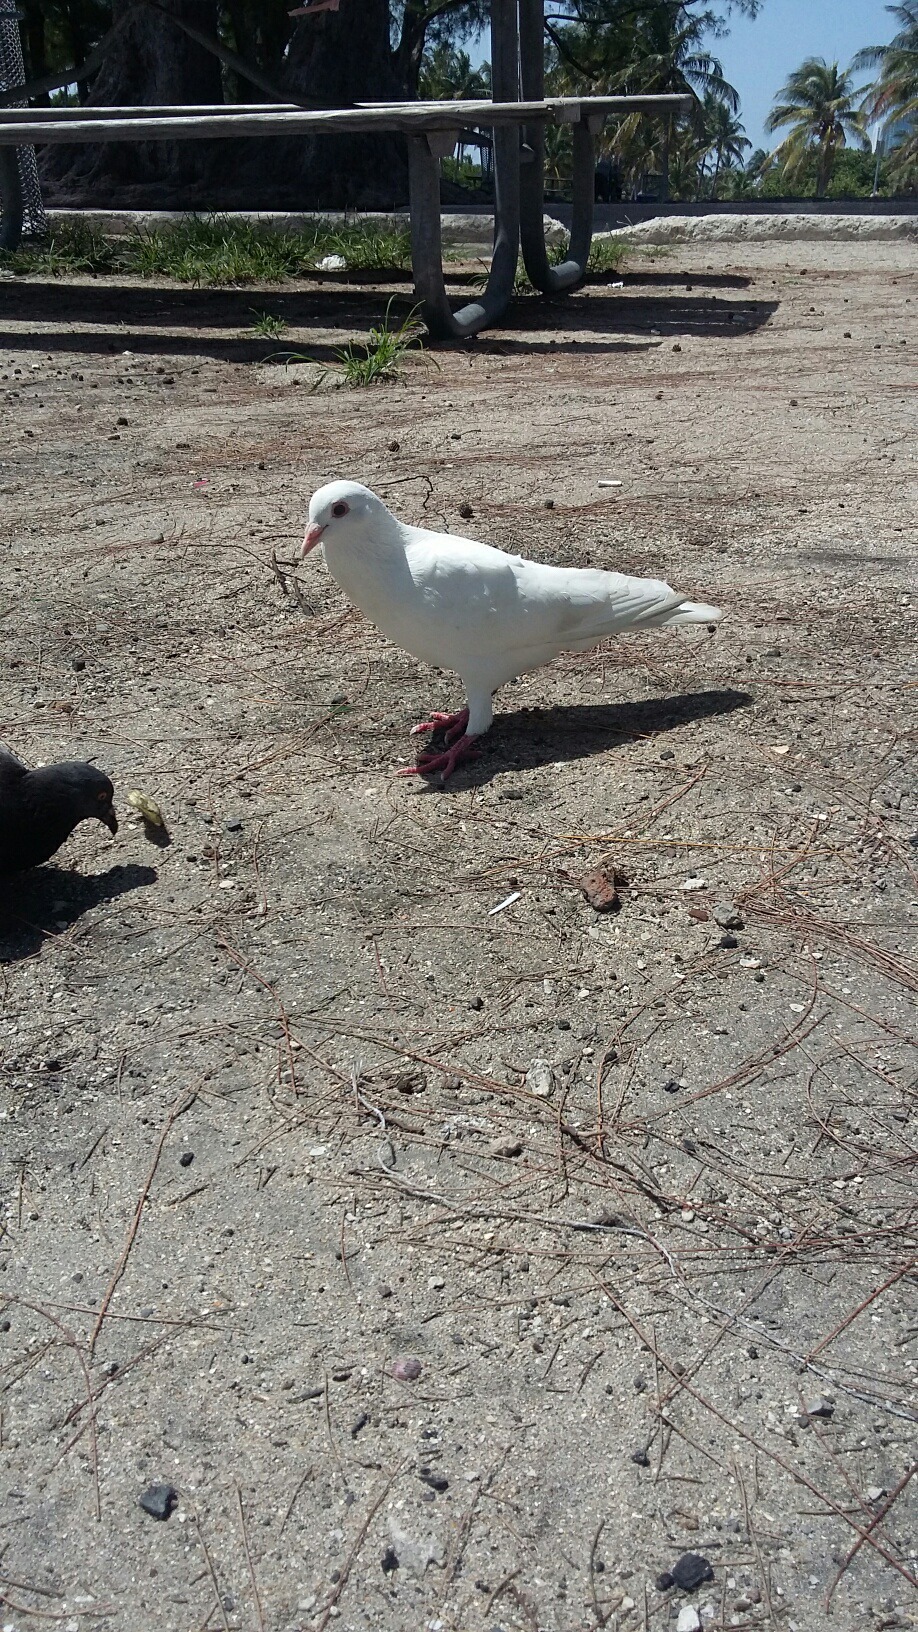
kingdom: Animalia
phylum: Chordata
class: Aves
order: Columbiformes
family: Columbidae
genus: Columba
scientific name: Columba livia
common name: Rock pigeon
